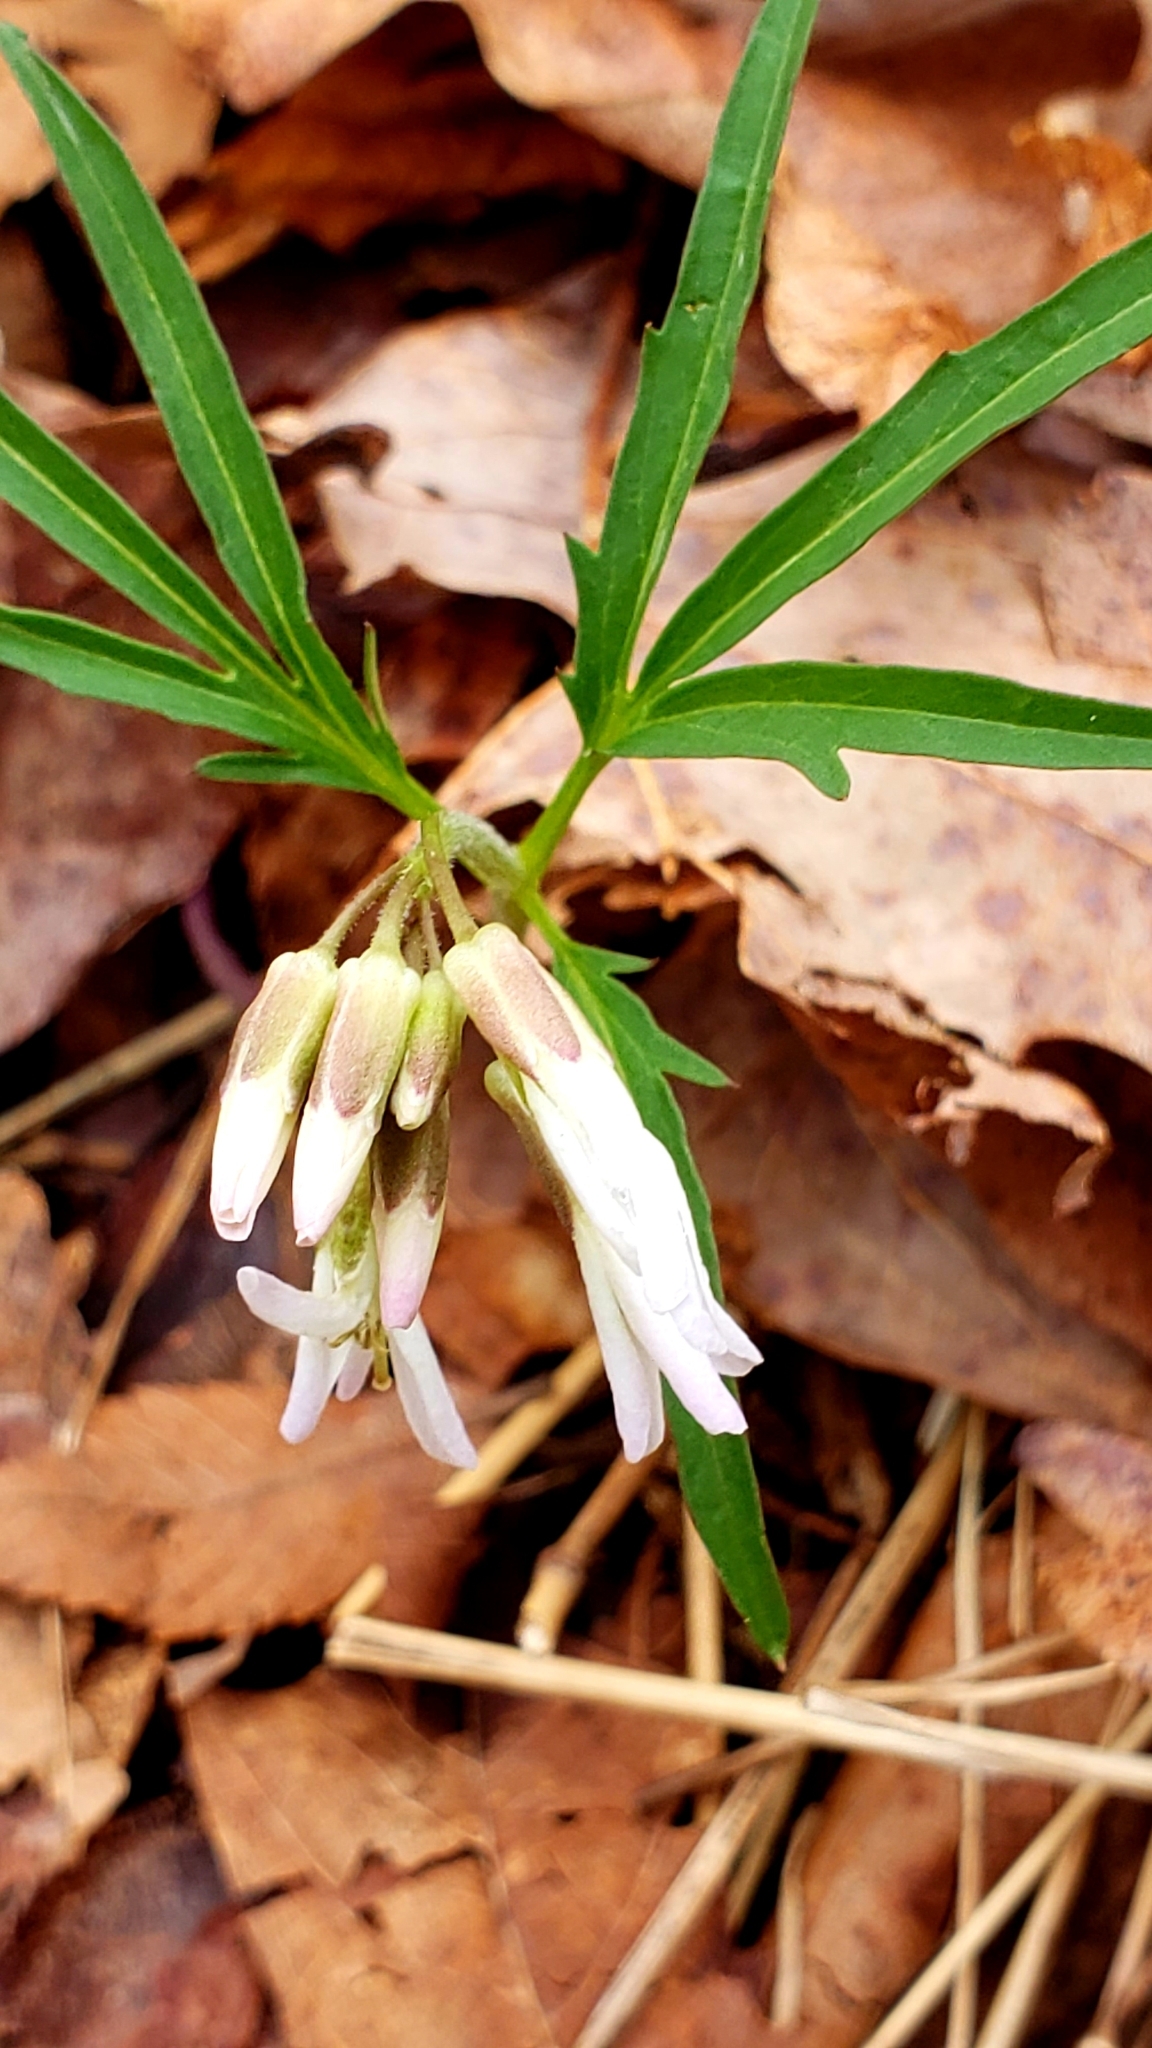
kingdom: Plantae
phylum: Tracheophyta
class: Magnoliopsida
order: Brassicales
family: Brassicaceae
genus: Cardamine
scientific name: Cardamine concatenata
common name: Cut-leaf toothcup
